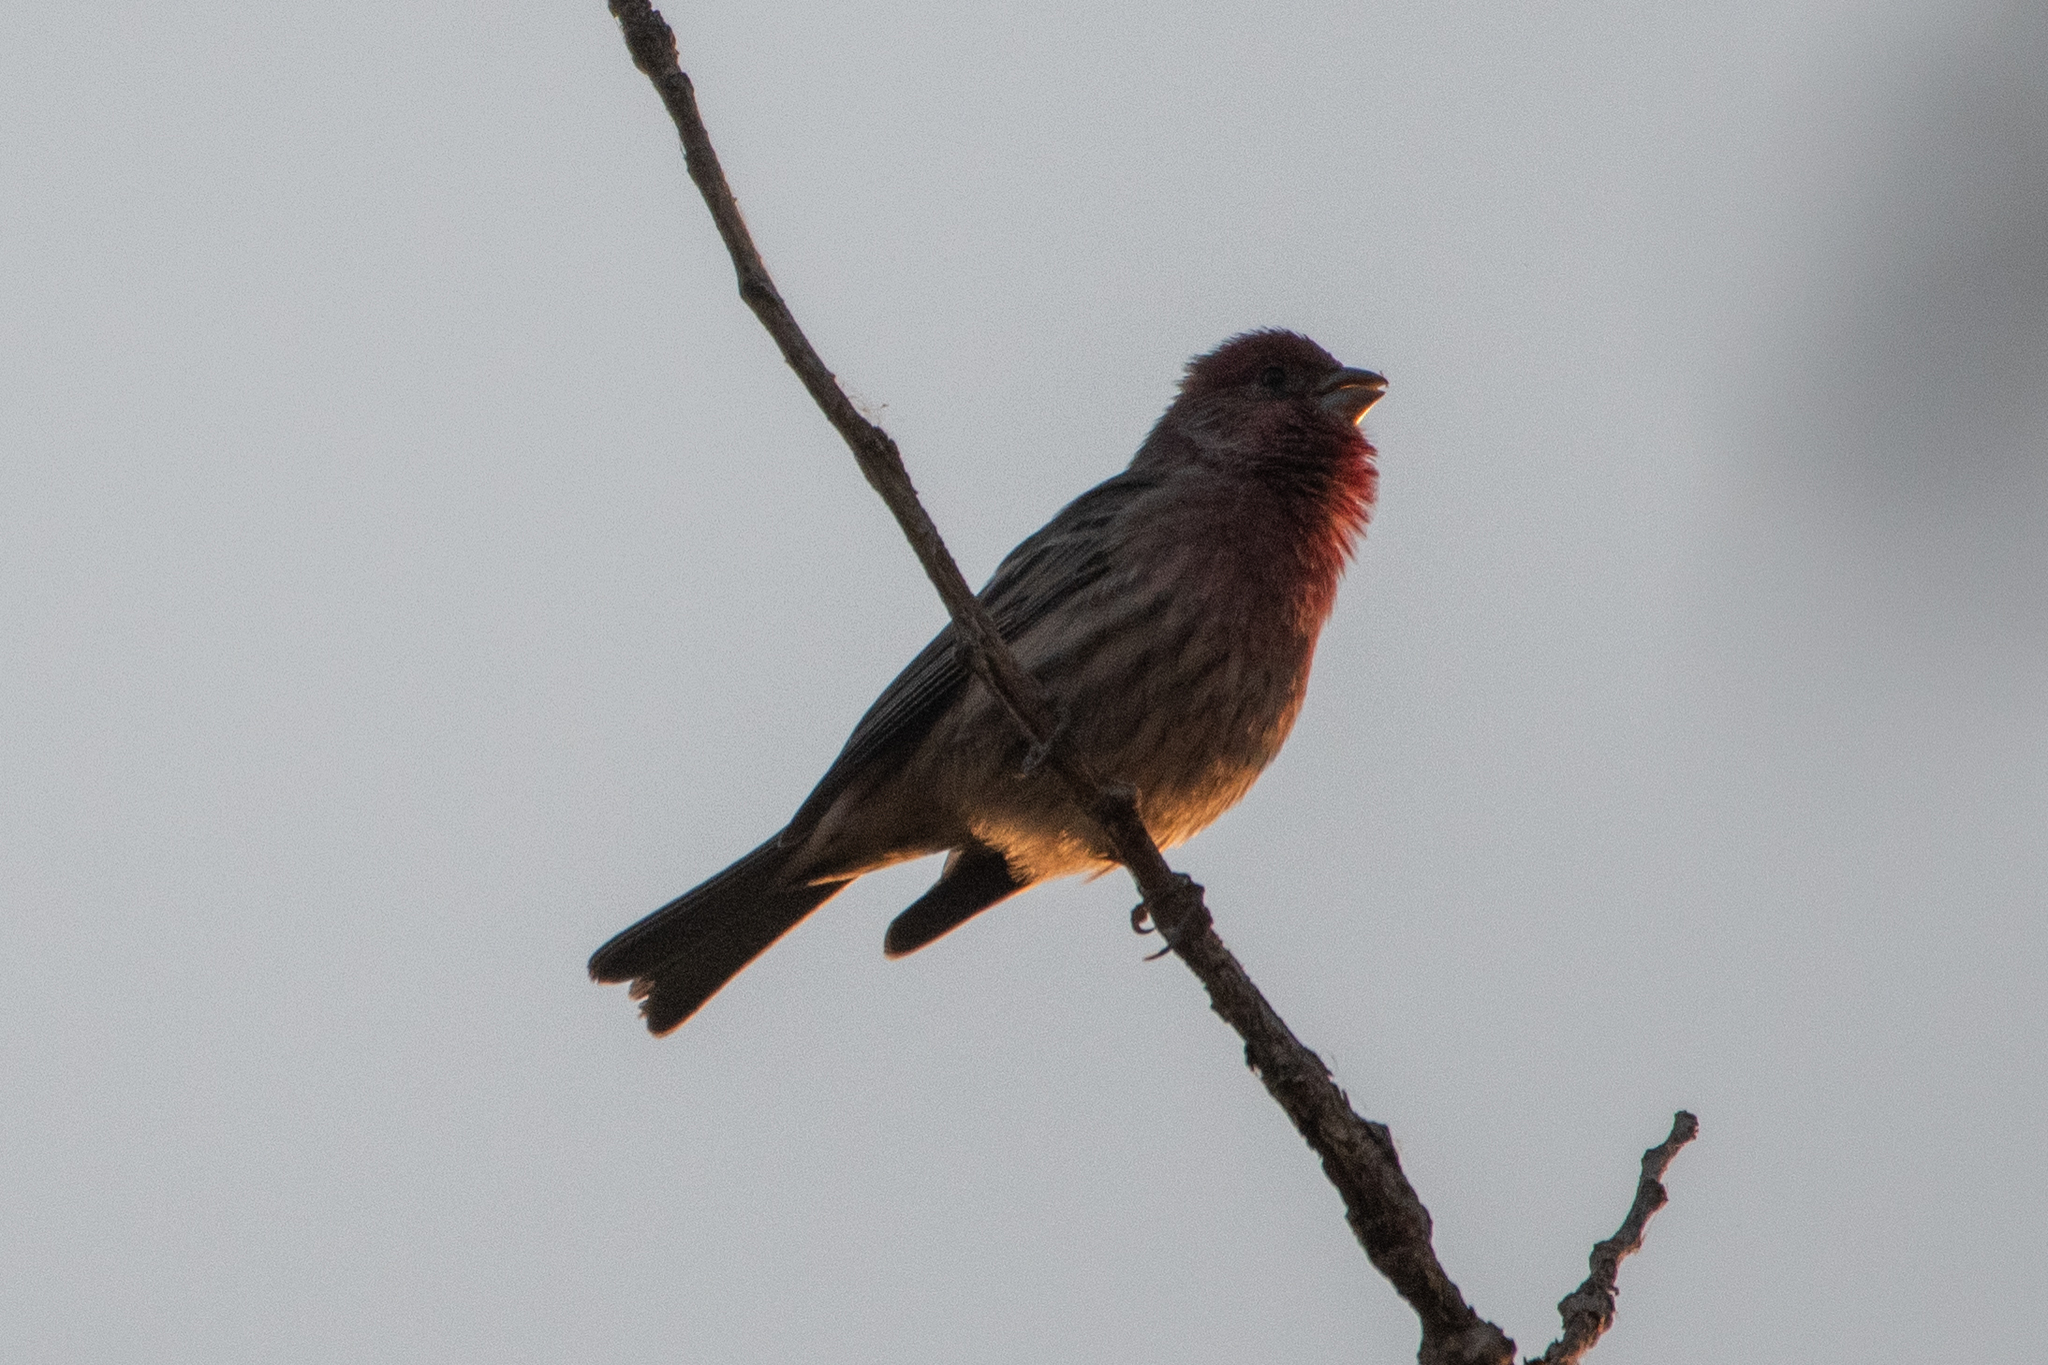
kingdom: Animalia
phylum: Chordata
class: Aves
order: Passeriformes
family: Fringillidae
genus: Haemorhous
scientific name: Haemorhous mexicanus
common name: House finch
